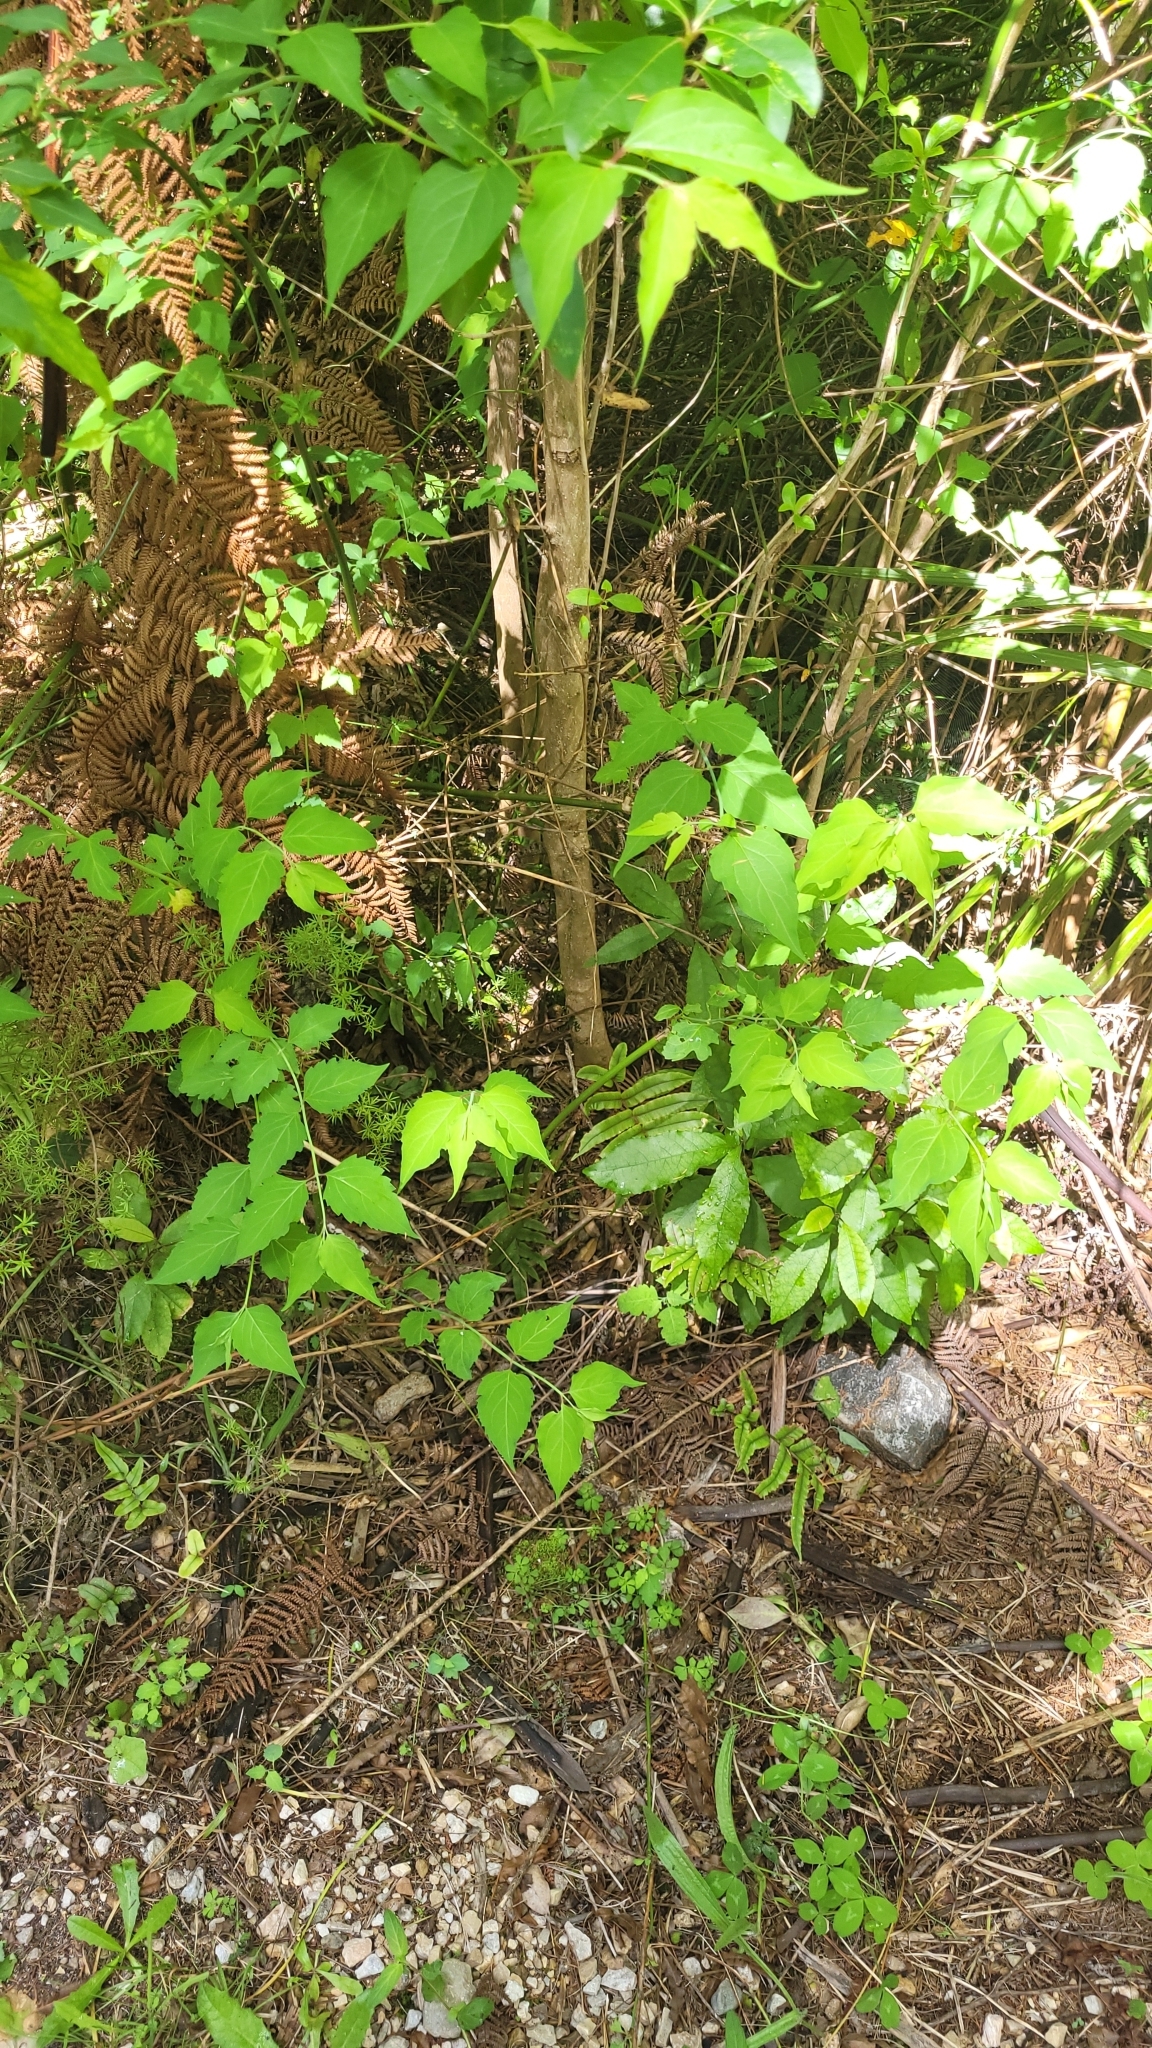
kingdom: Plantae
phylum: Tracheophyta
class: Magnoliopsida
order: Dipsacales
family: Caprifoliaceae
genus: Leycesteria
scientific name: Leycesteria formosa
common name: Himalayan honeysuckle
